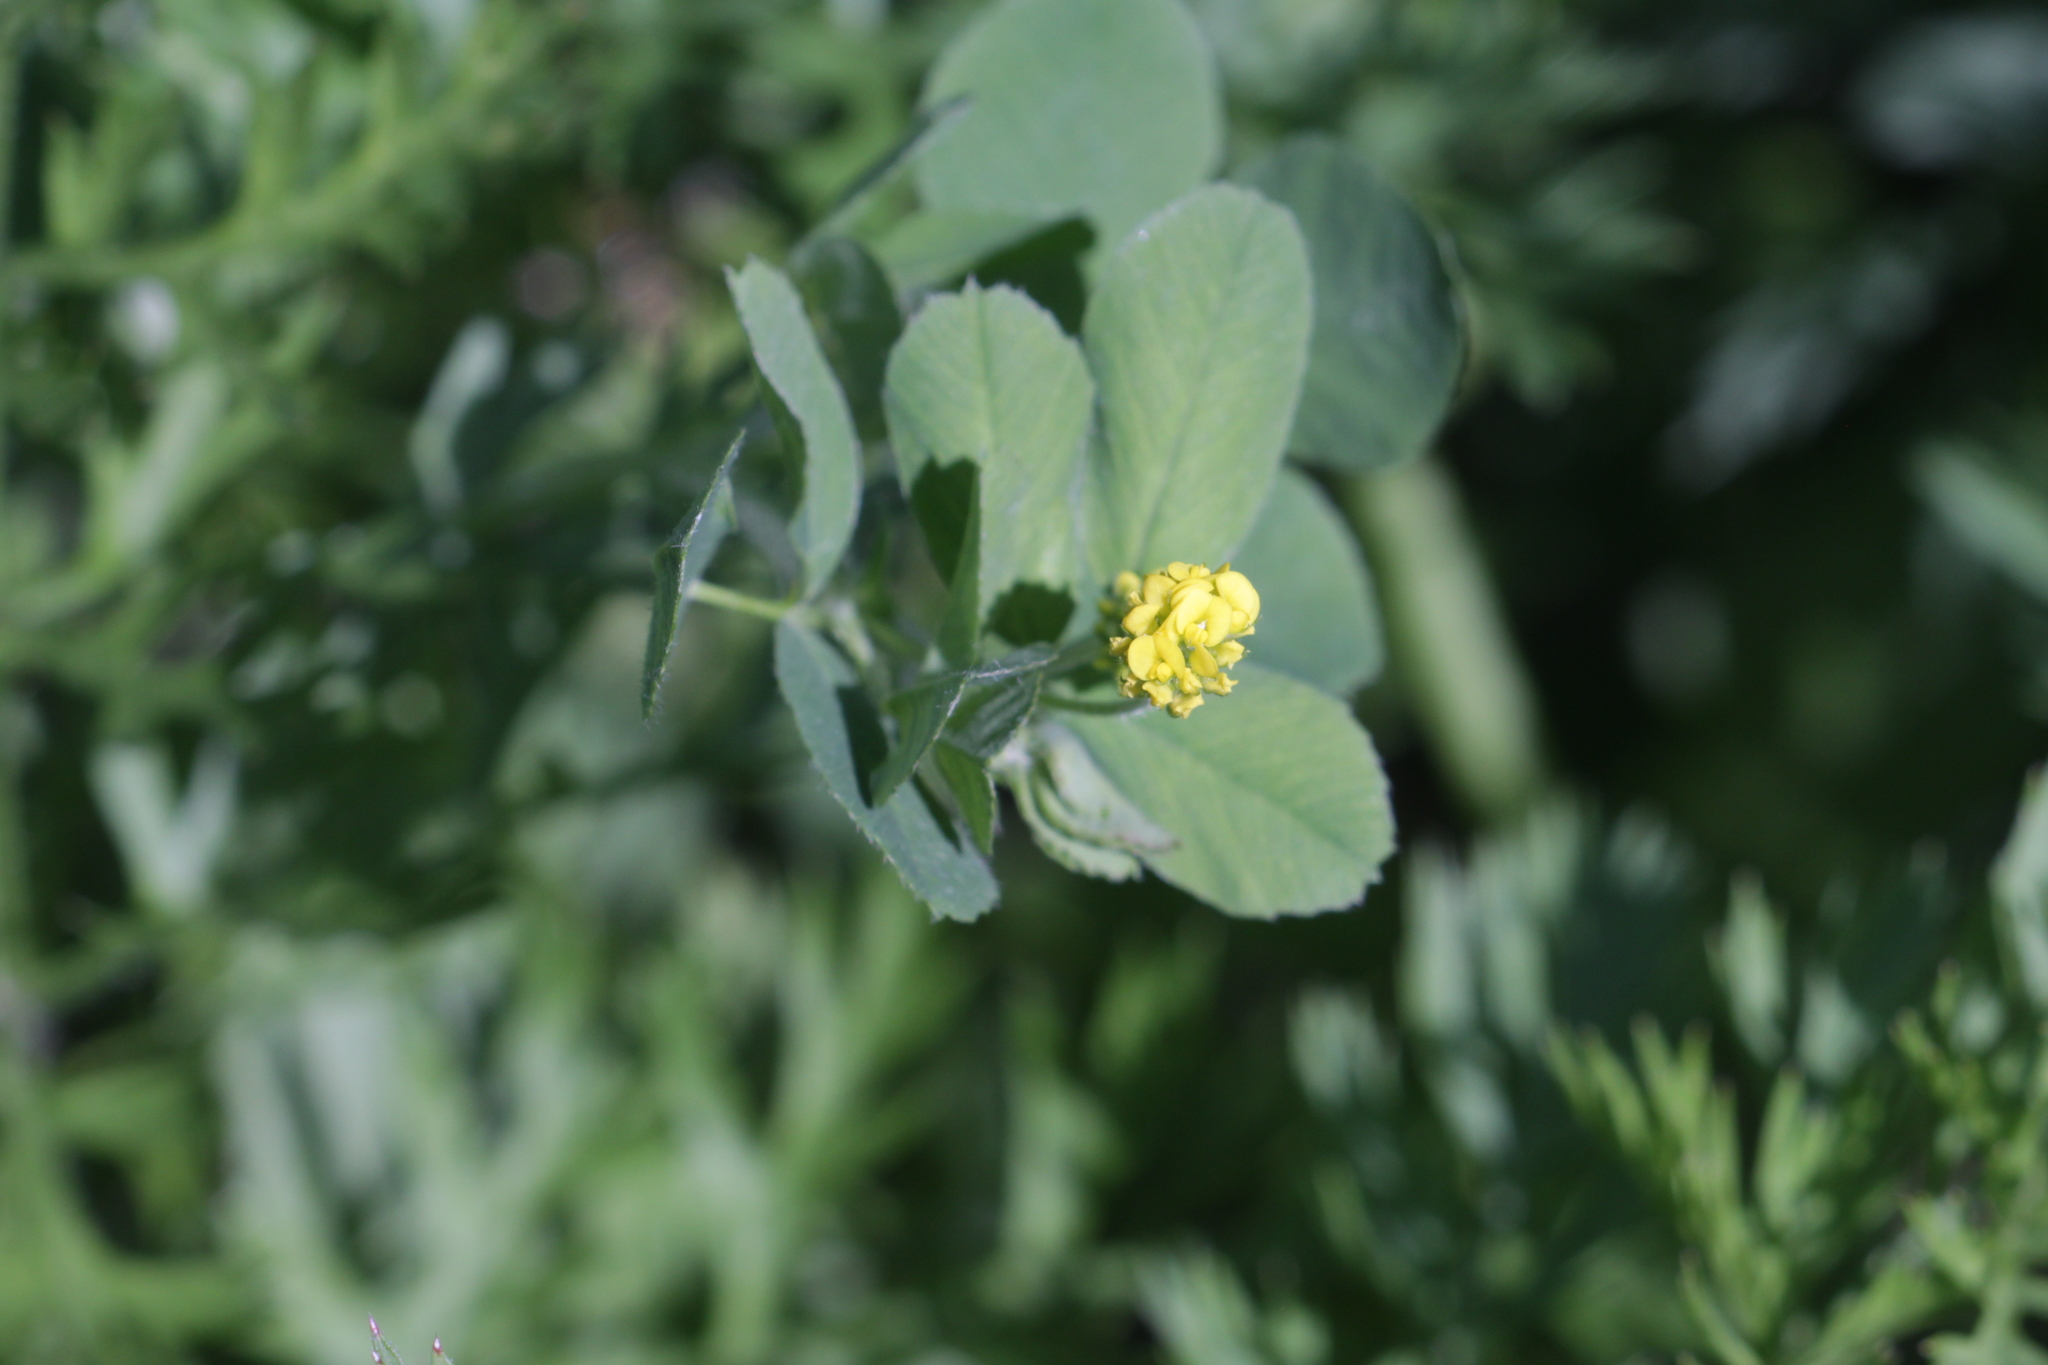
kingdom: Plantae
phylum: Tracheophyta
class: Magnoliopsida
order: Fabales
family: Fabaceae
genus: Medicago
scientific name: Medicago lupulina
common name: Black medick
